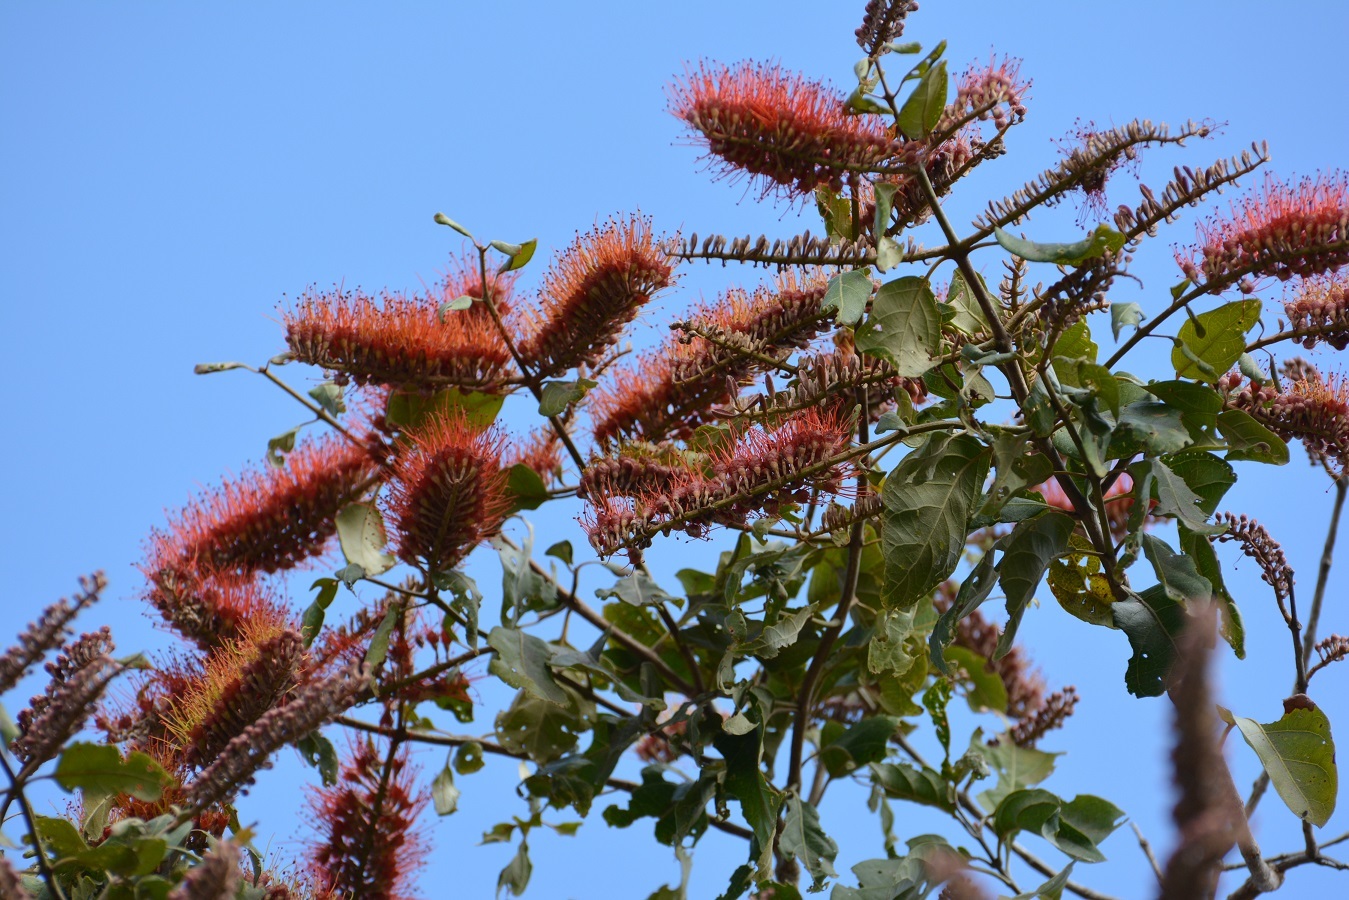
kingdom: Plantae
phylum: Tracheophyta
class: Magnoliopsida
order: Myrtales
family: Combretaceae
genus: Combretum
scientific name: Combretum fruticosum
